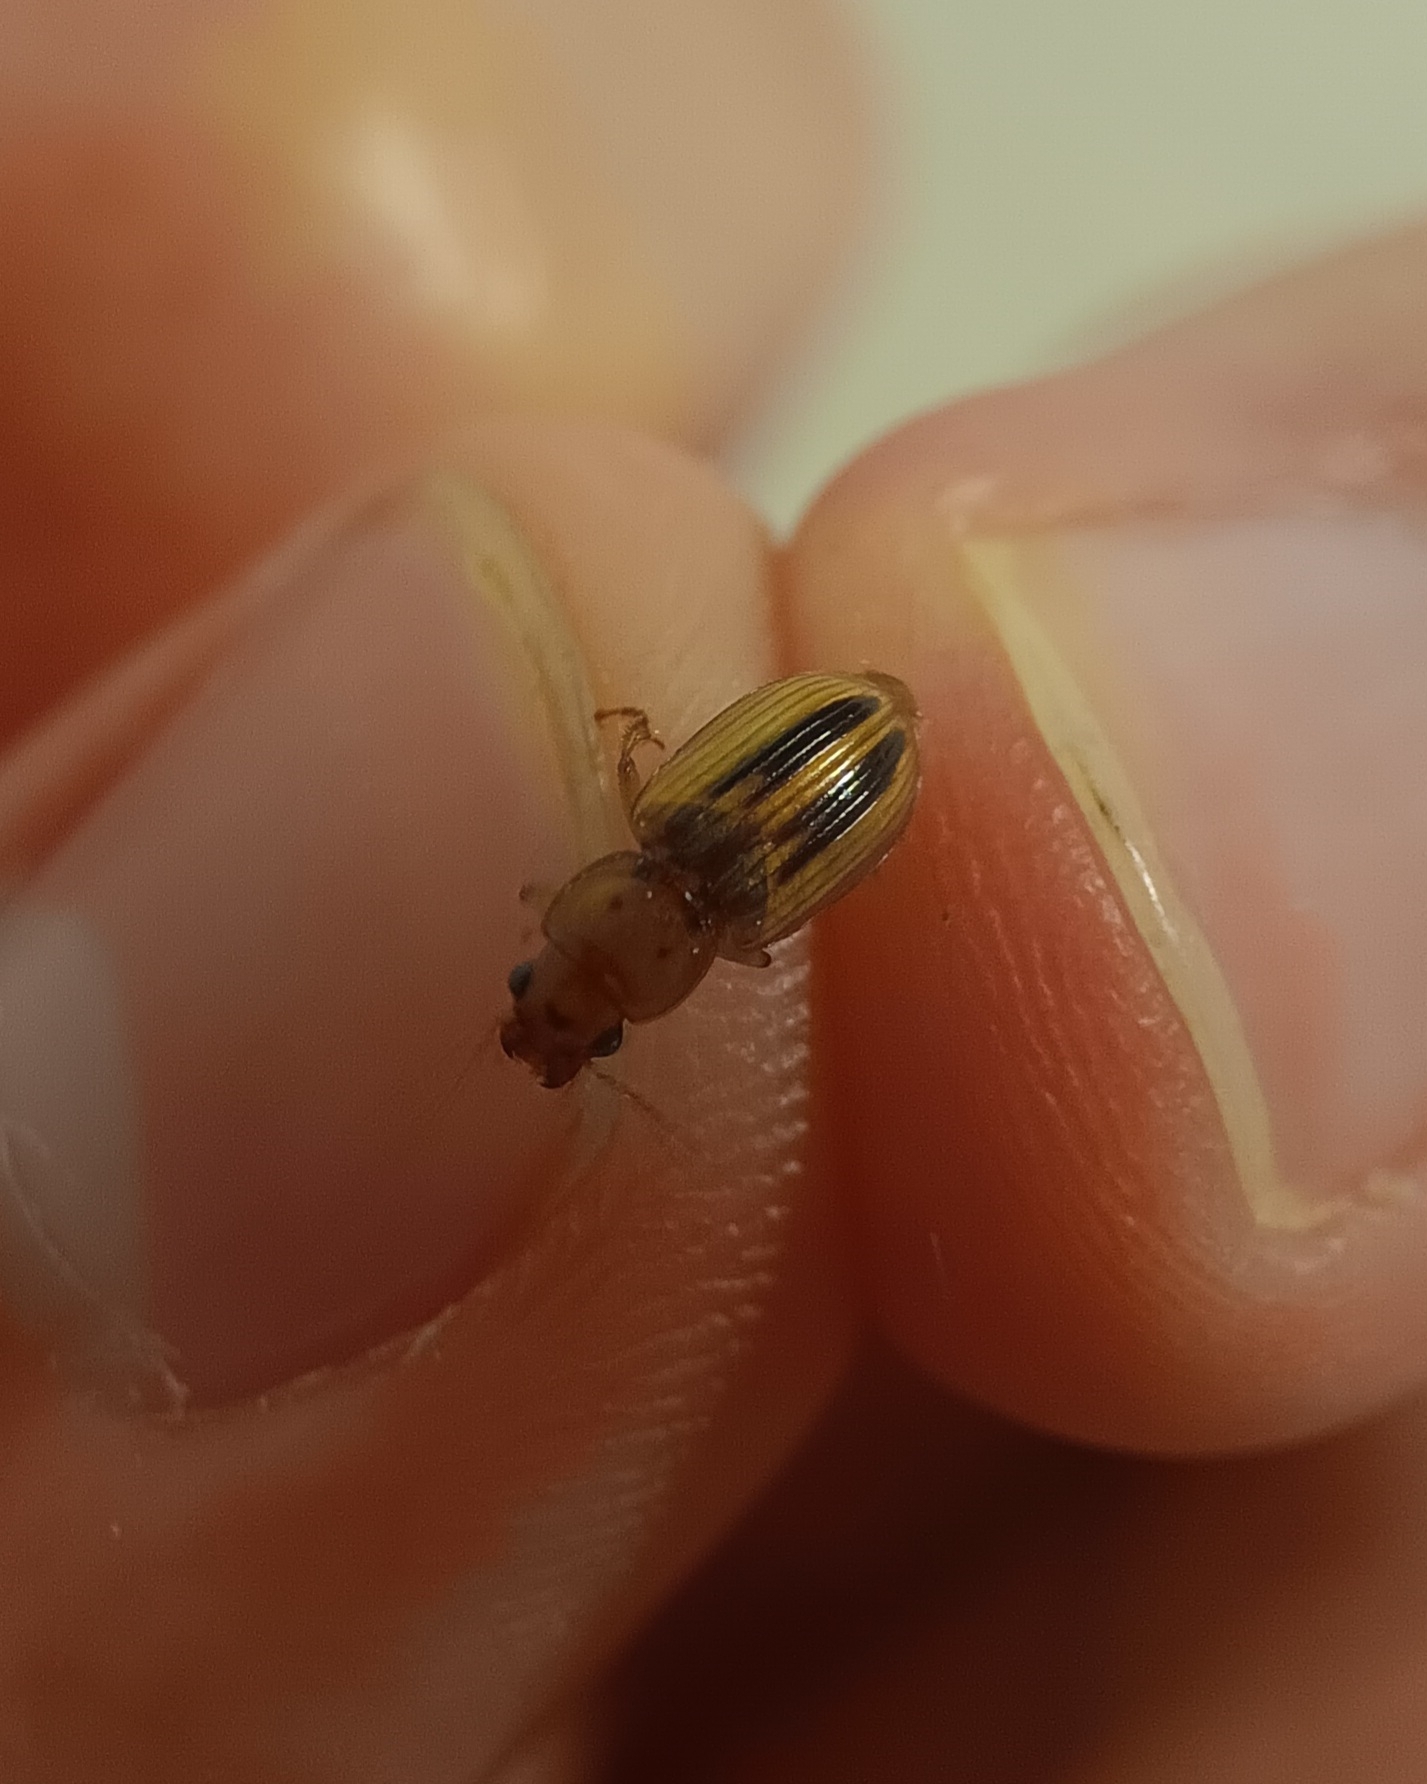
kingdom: Animalia
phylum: Arthropoda
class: Insecta
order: Coleoptera
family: Carabidae
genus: Stenolophus
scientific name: Stenolophus lineola
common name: Lined stenolophus
